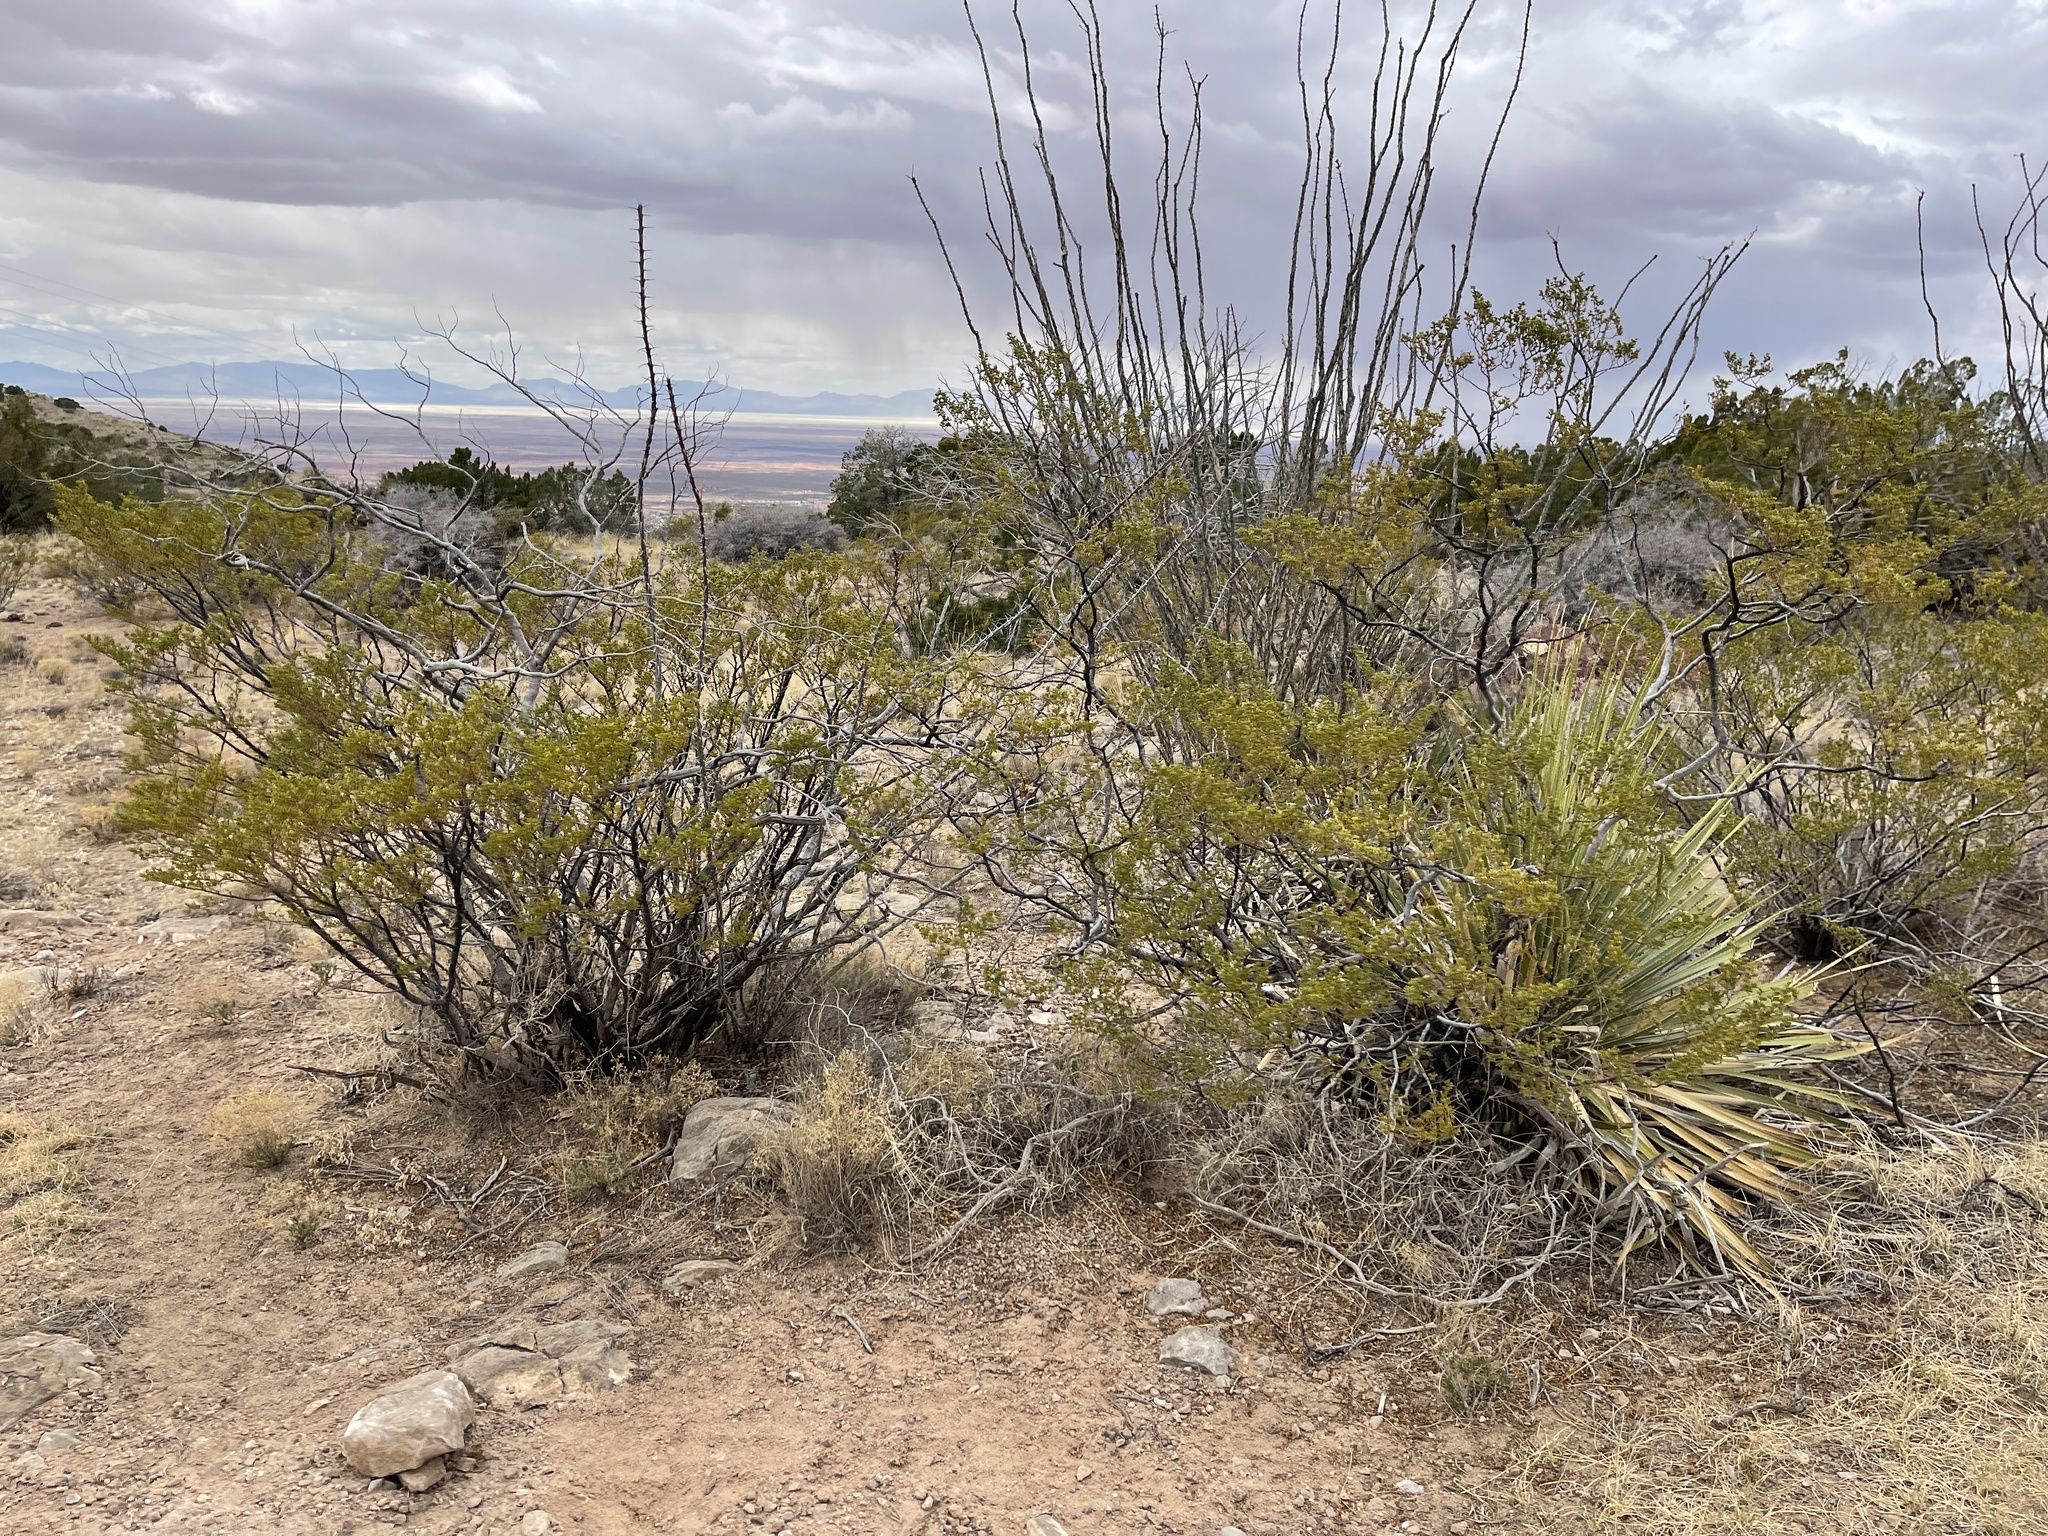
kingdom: Plantae
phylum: Tracheophyta
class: Magnoliopsida
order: Zygophyllales
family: Zygophyllaceae
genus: Larrea
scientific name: Larrea tridentata
